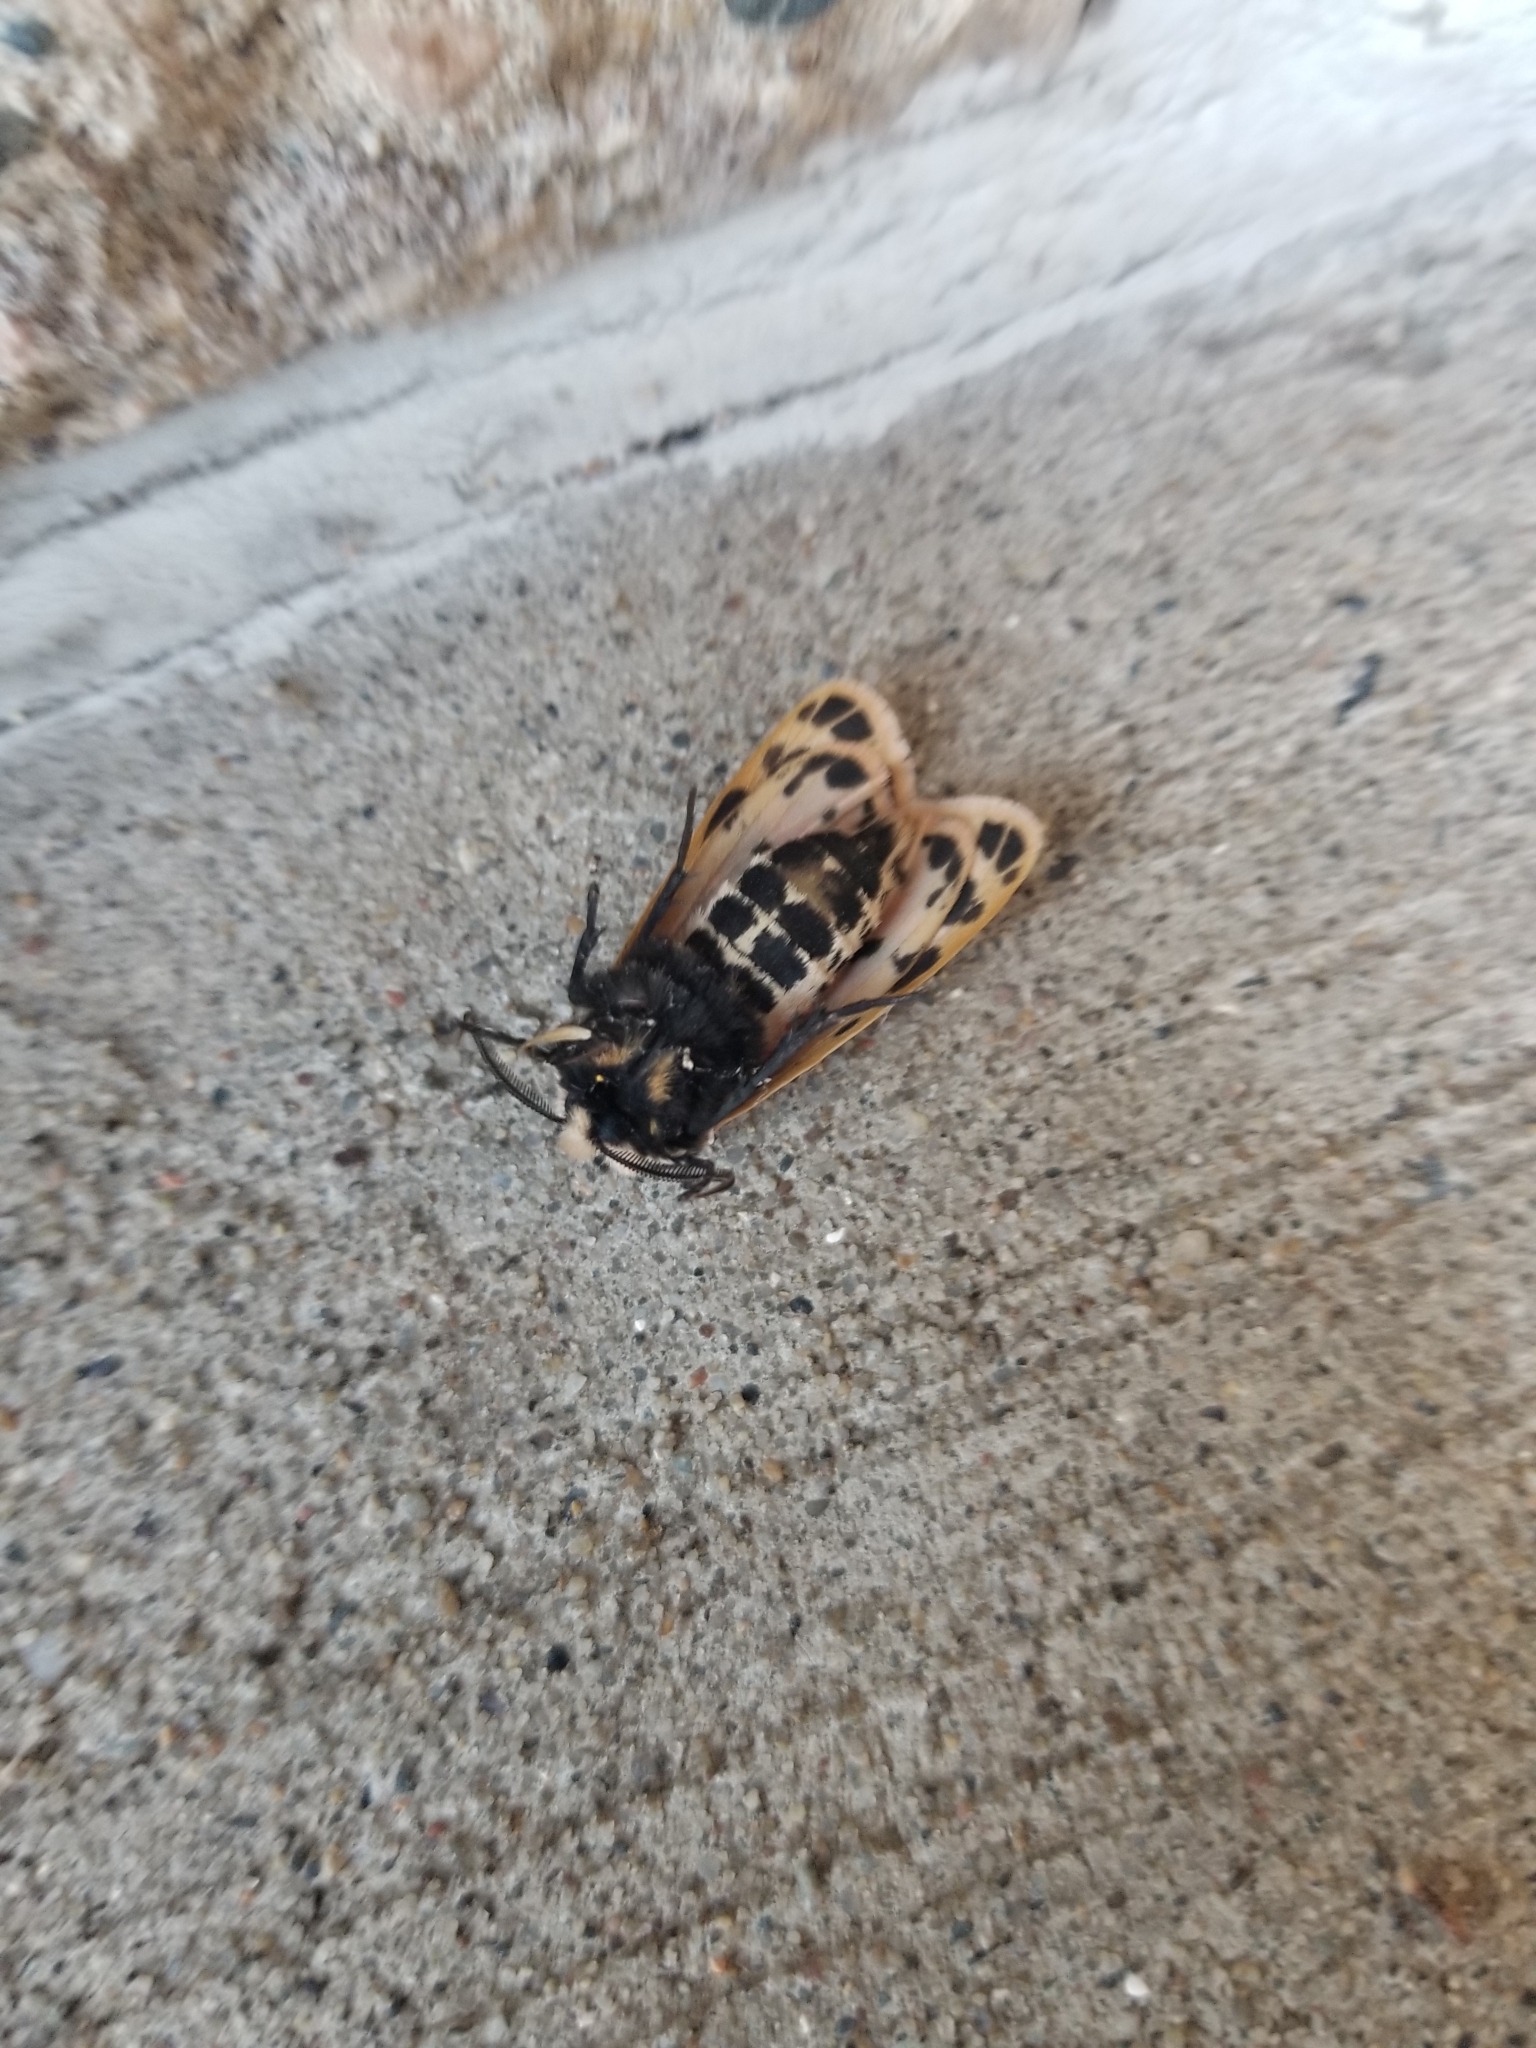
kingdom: Animalia
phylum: Arthropoda
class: Insecta
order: Lepidoptera
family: Erebidae
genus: Grammia
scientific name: Grammia parthenice
